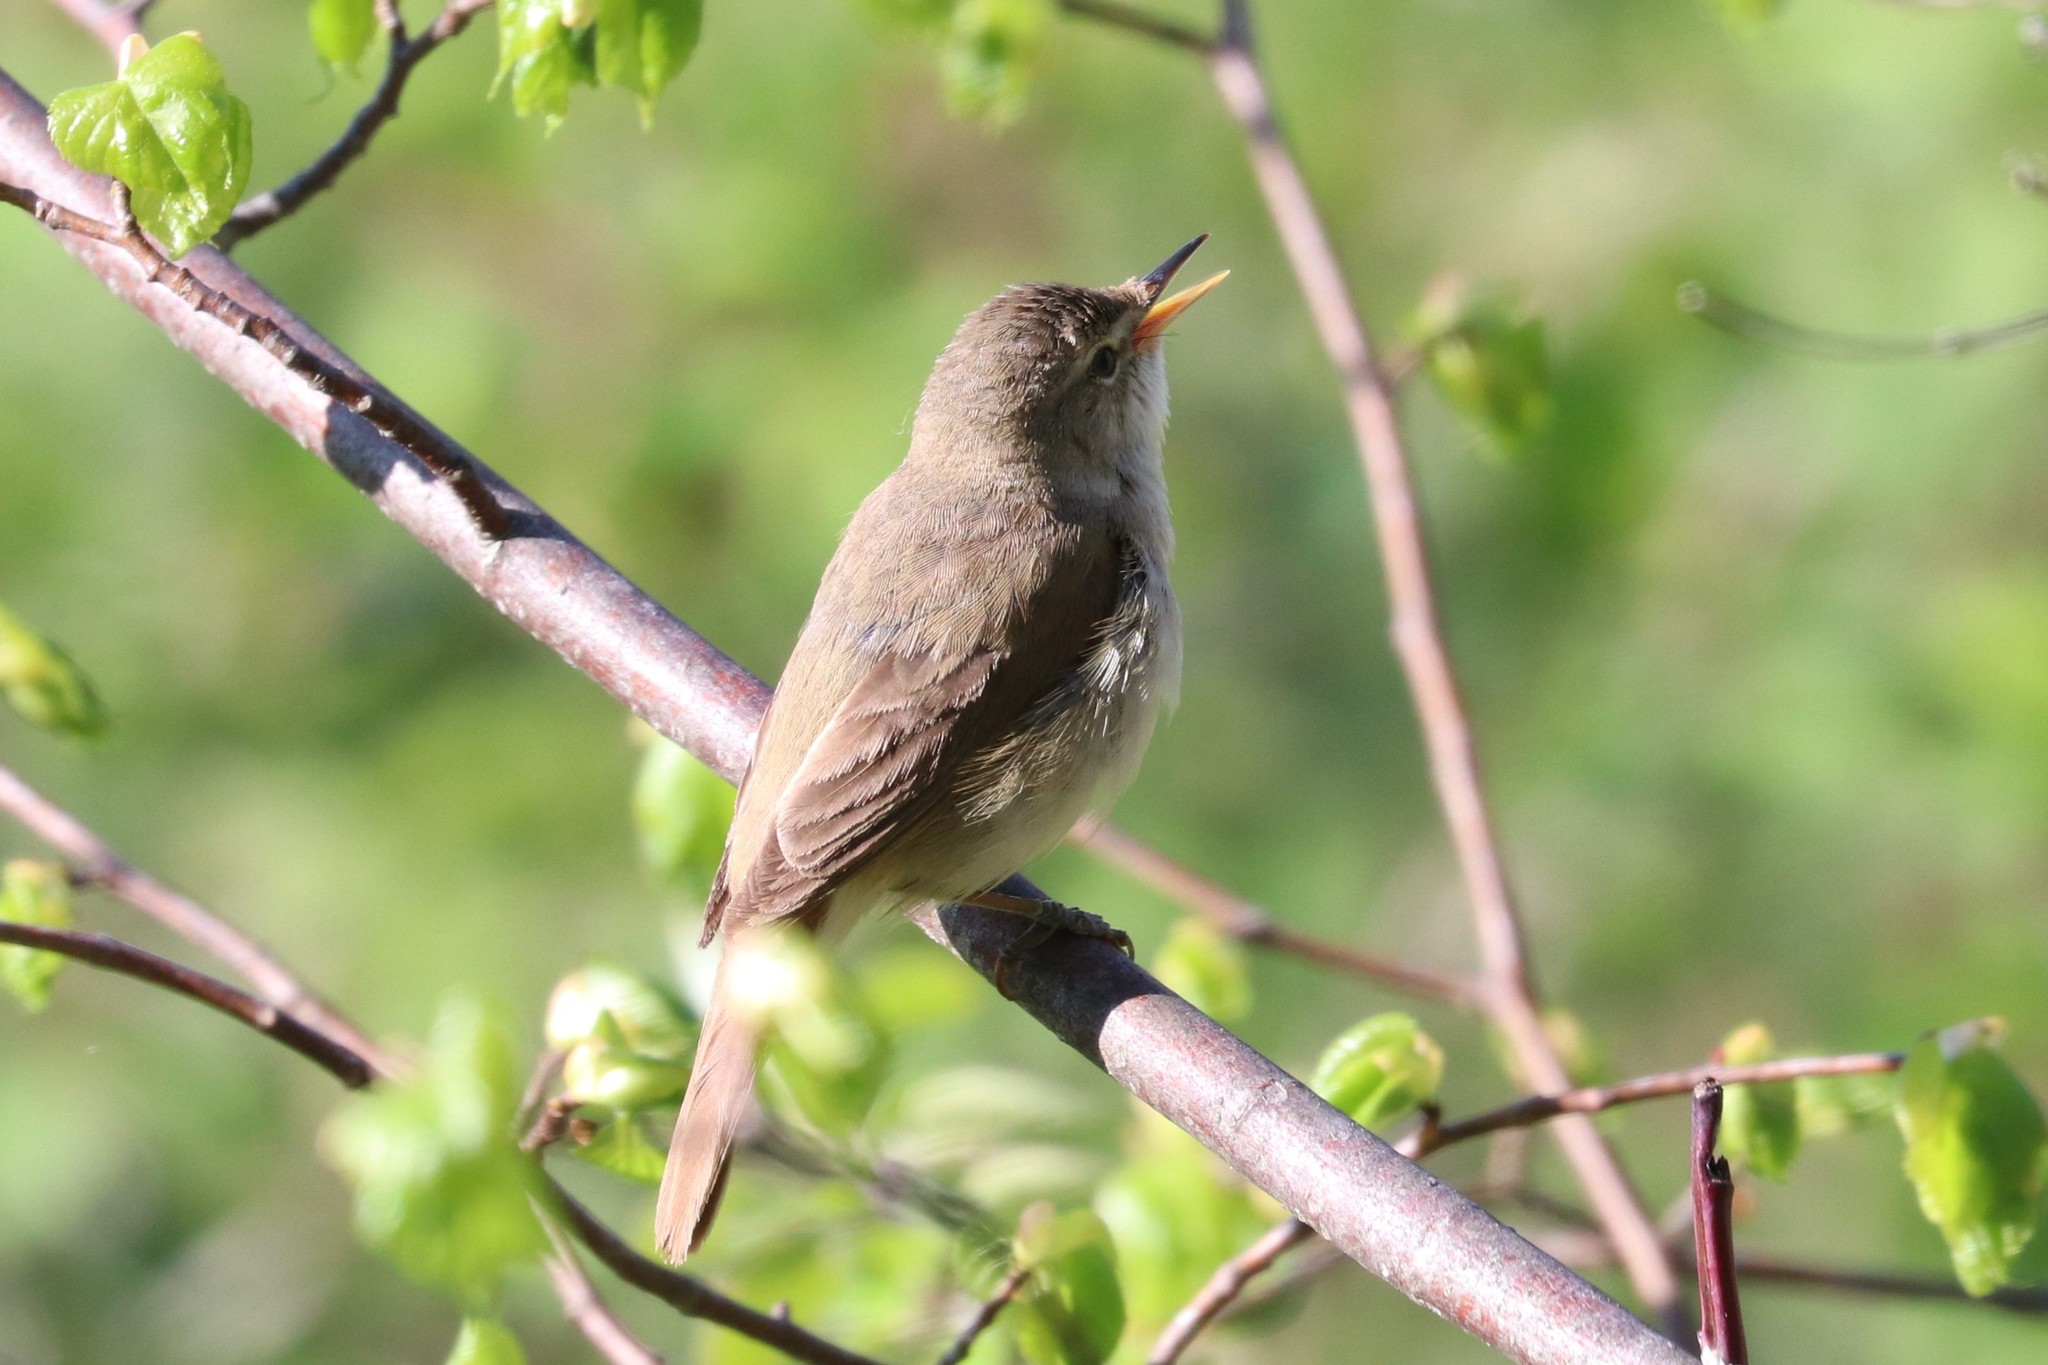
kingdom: Animalia
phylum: Chordata
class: Aves
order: Passeriformes
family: Acrocephalidae
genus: Acrocephalus
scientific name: Acrocephalus dumetorum
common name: Blyth's reed warbler
